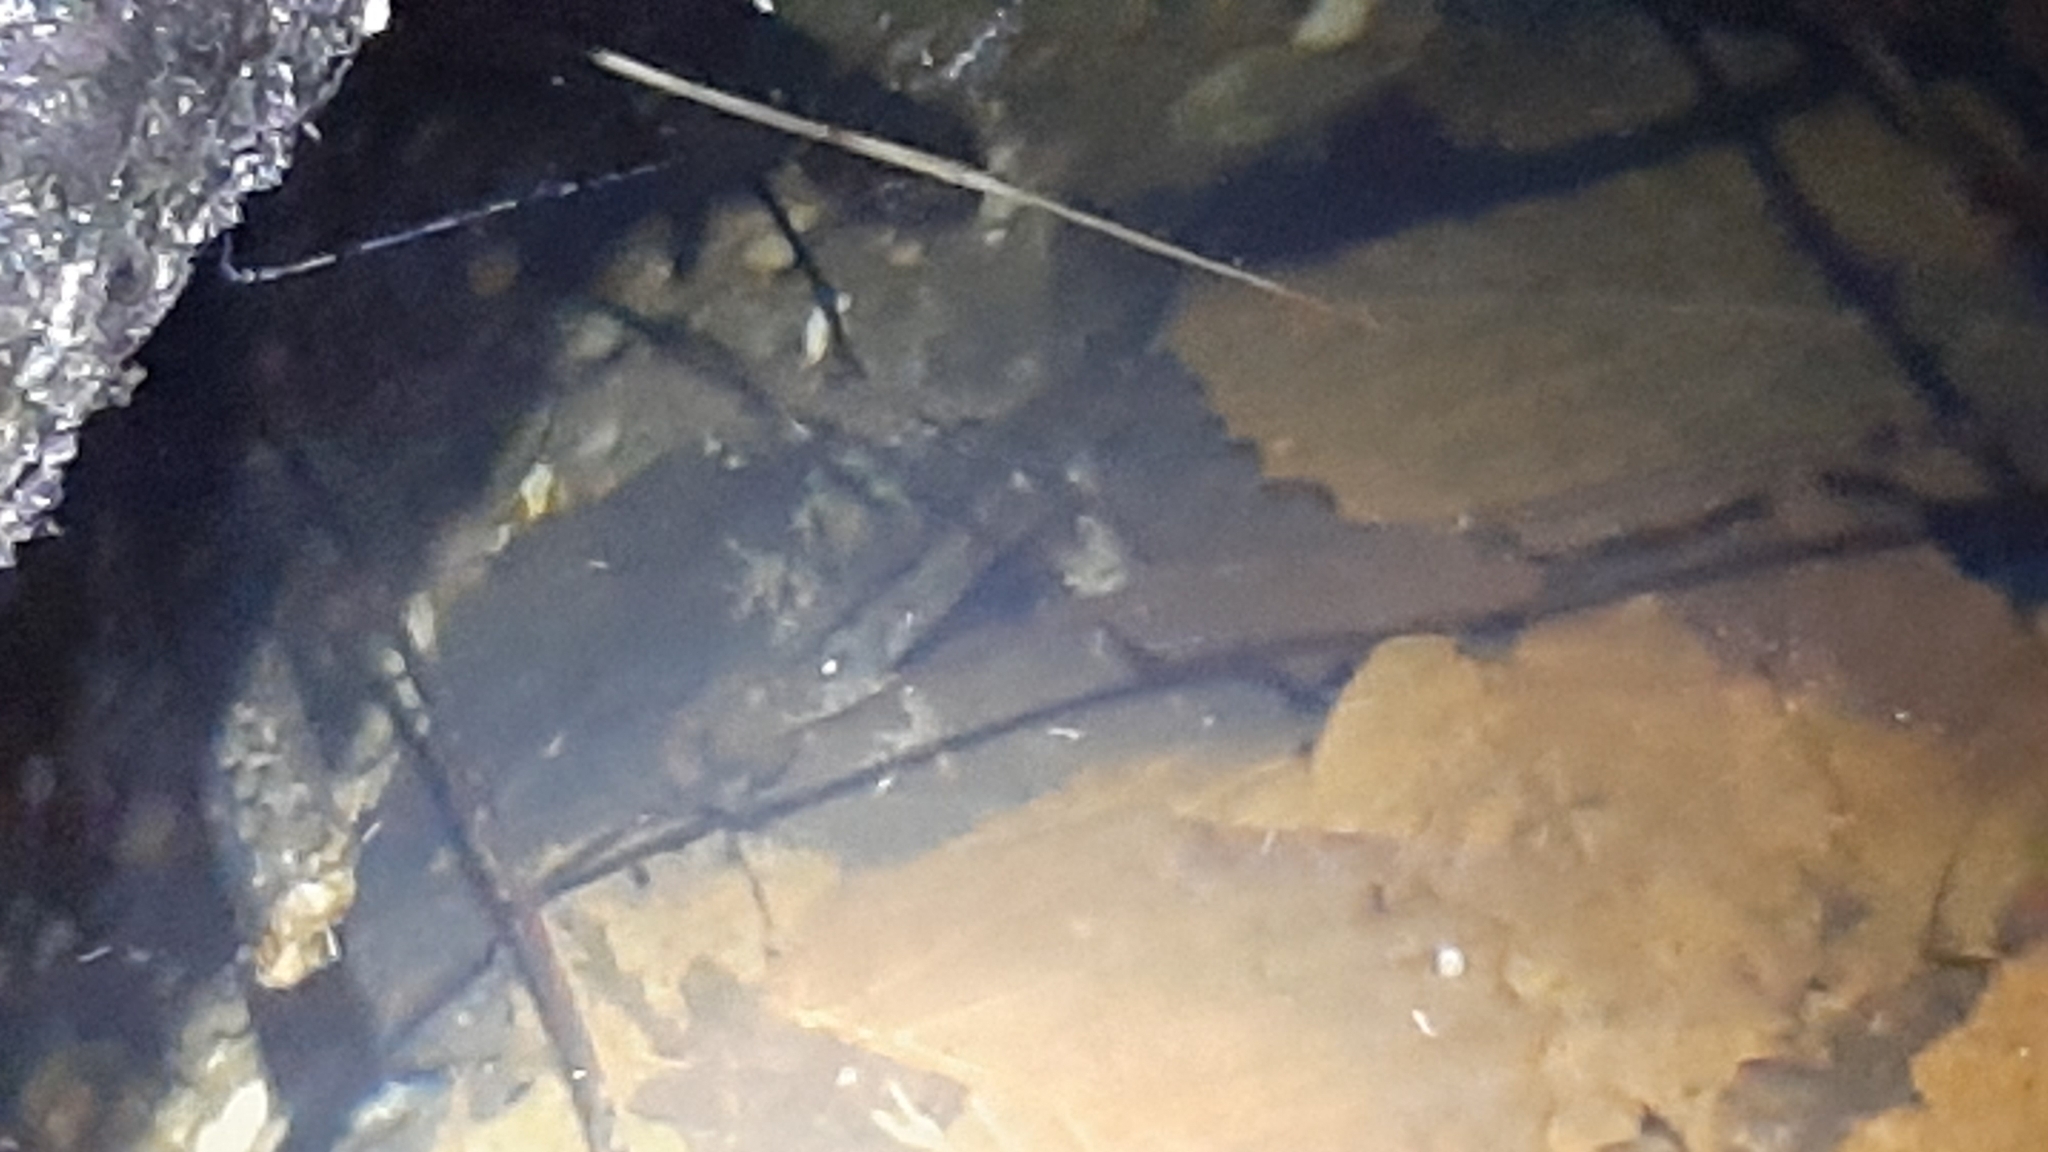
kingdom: Animalia
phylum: Chordata
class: Amphibia
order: Caudata
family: Salamandridae
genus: Triturus
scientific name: Triturus carnifex
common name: Italian crested newt
